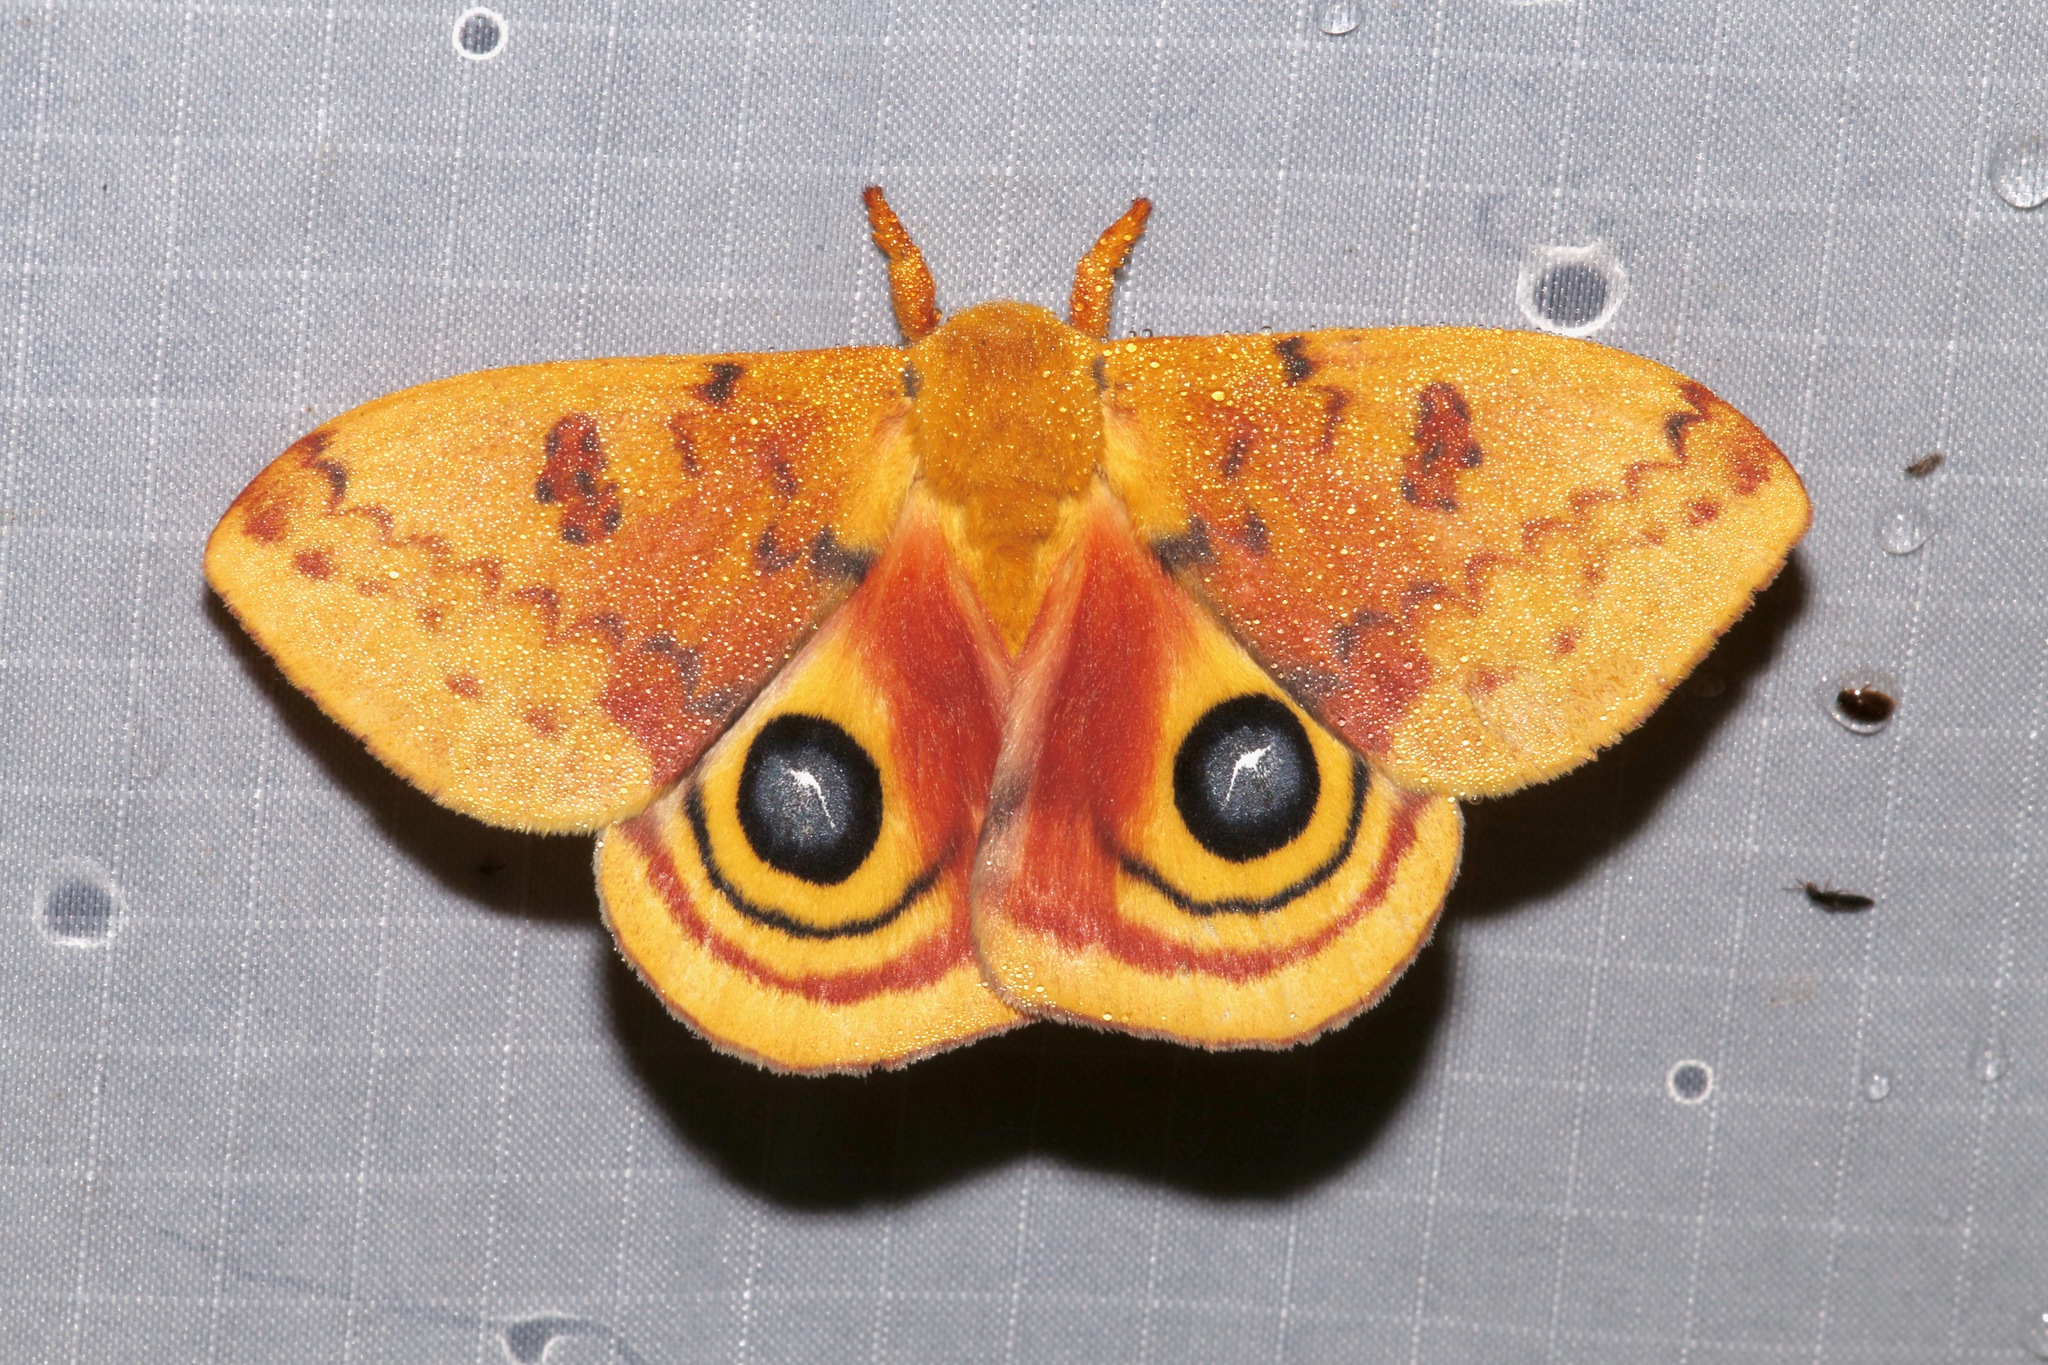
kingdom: Animalia
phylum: Arthropoda
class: Insecta
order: Lepidoptera
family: Saturniidae
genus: Automeris
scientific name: Automeris io
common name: Io moth
